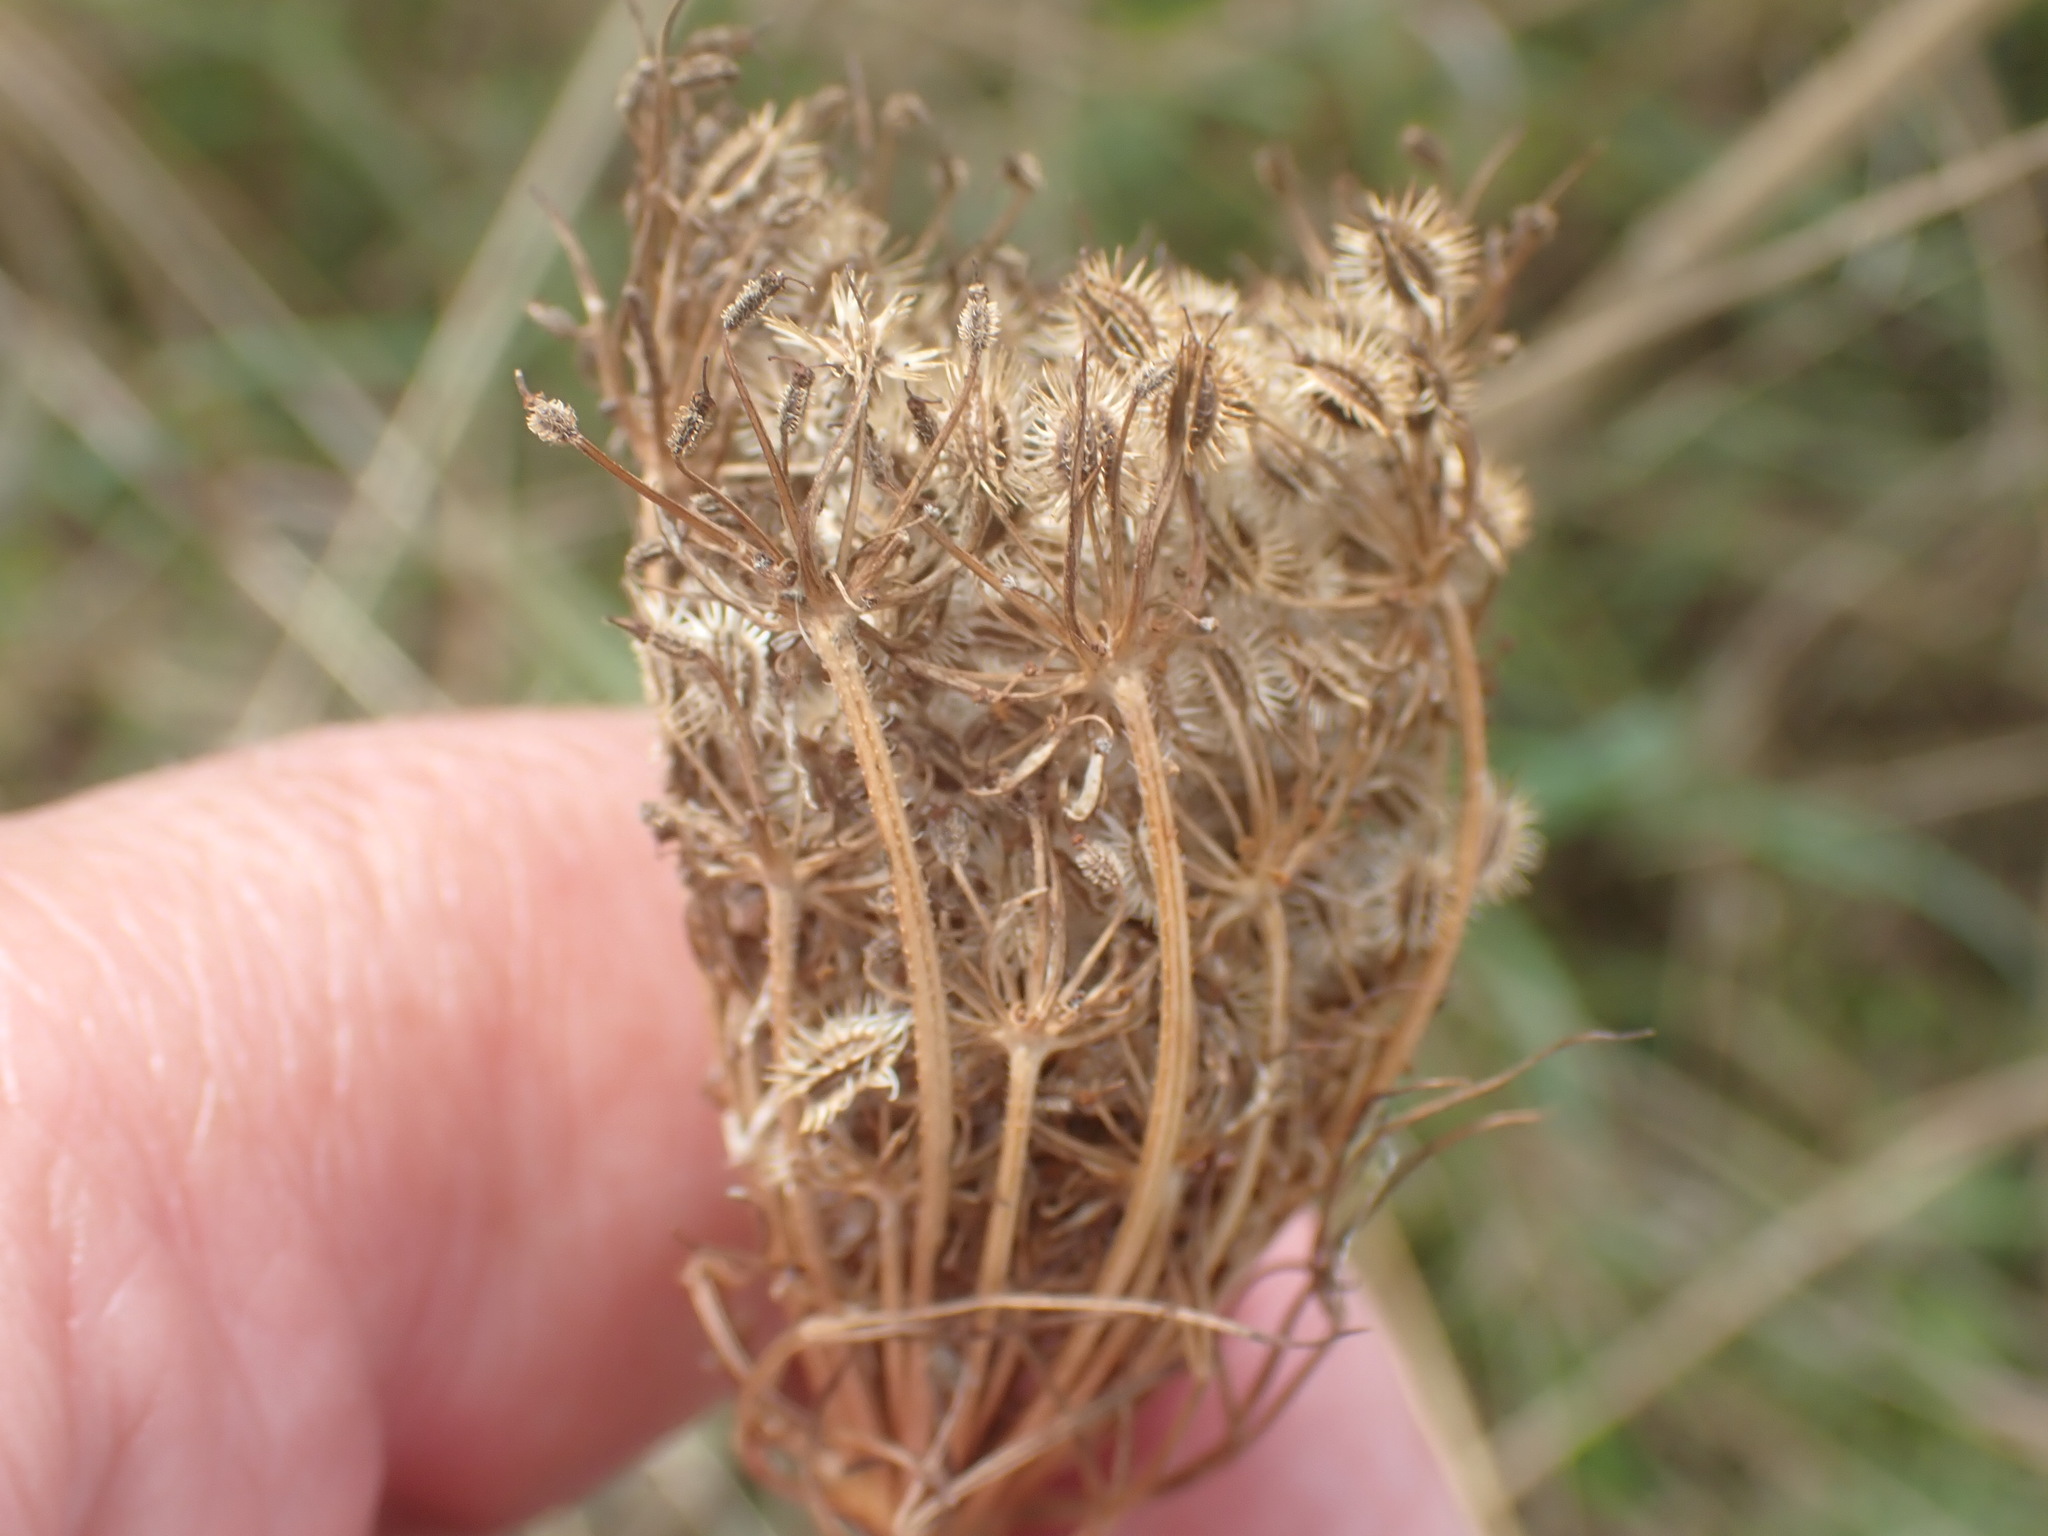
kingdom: Plantae
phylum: Tracheophyta
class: Magnoliopsida
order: Apiales
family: Apiaceae
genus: Daucus
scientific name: Daucus carota
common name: Wild carrot
